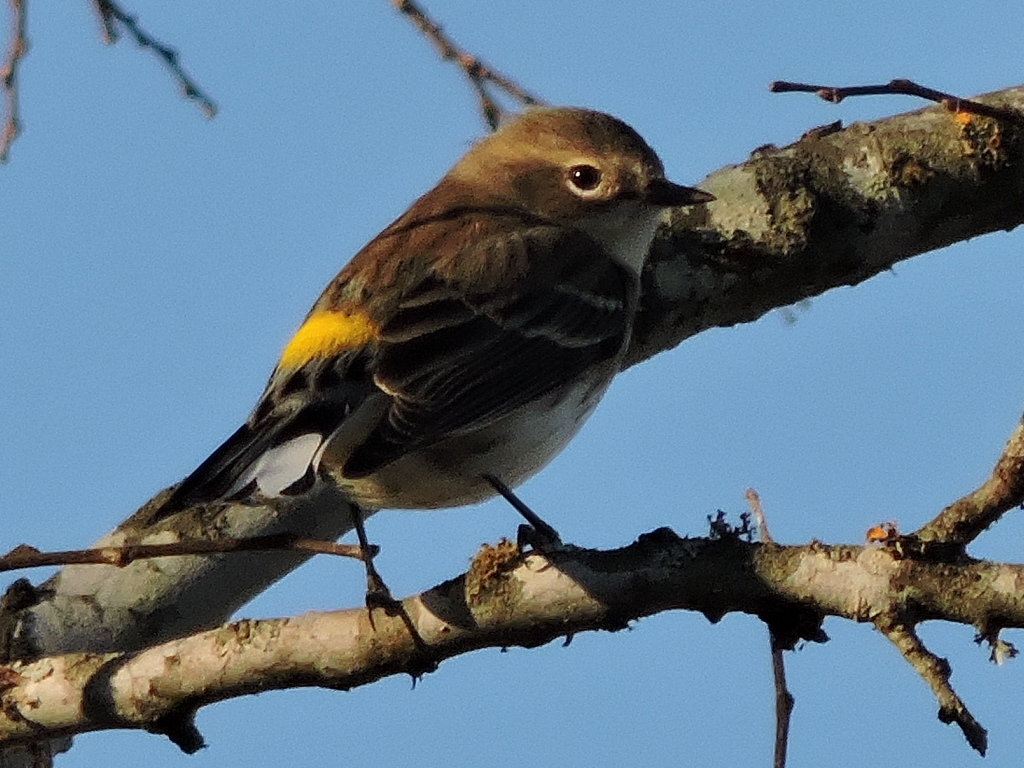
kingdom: Animalia
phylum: Chordata
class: Aves
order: Passeriformes
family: Parulidae
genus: Setophaga
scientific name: Setophaga coronata
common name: Myrtle warbler
